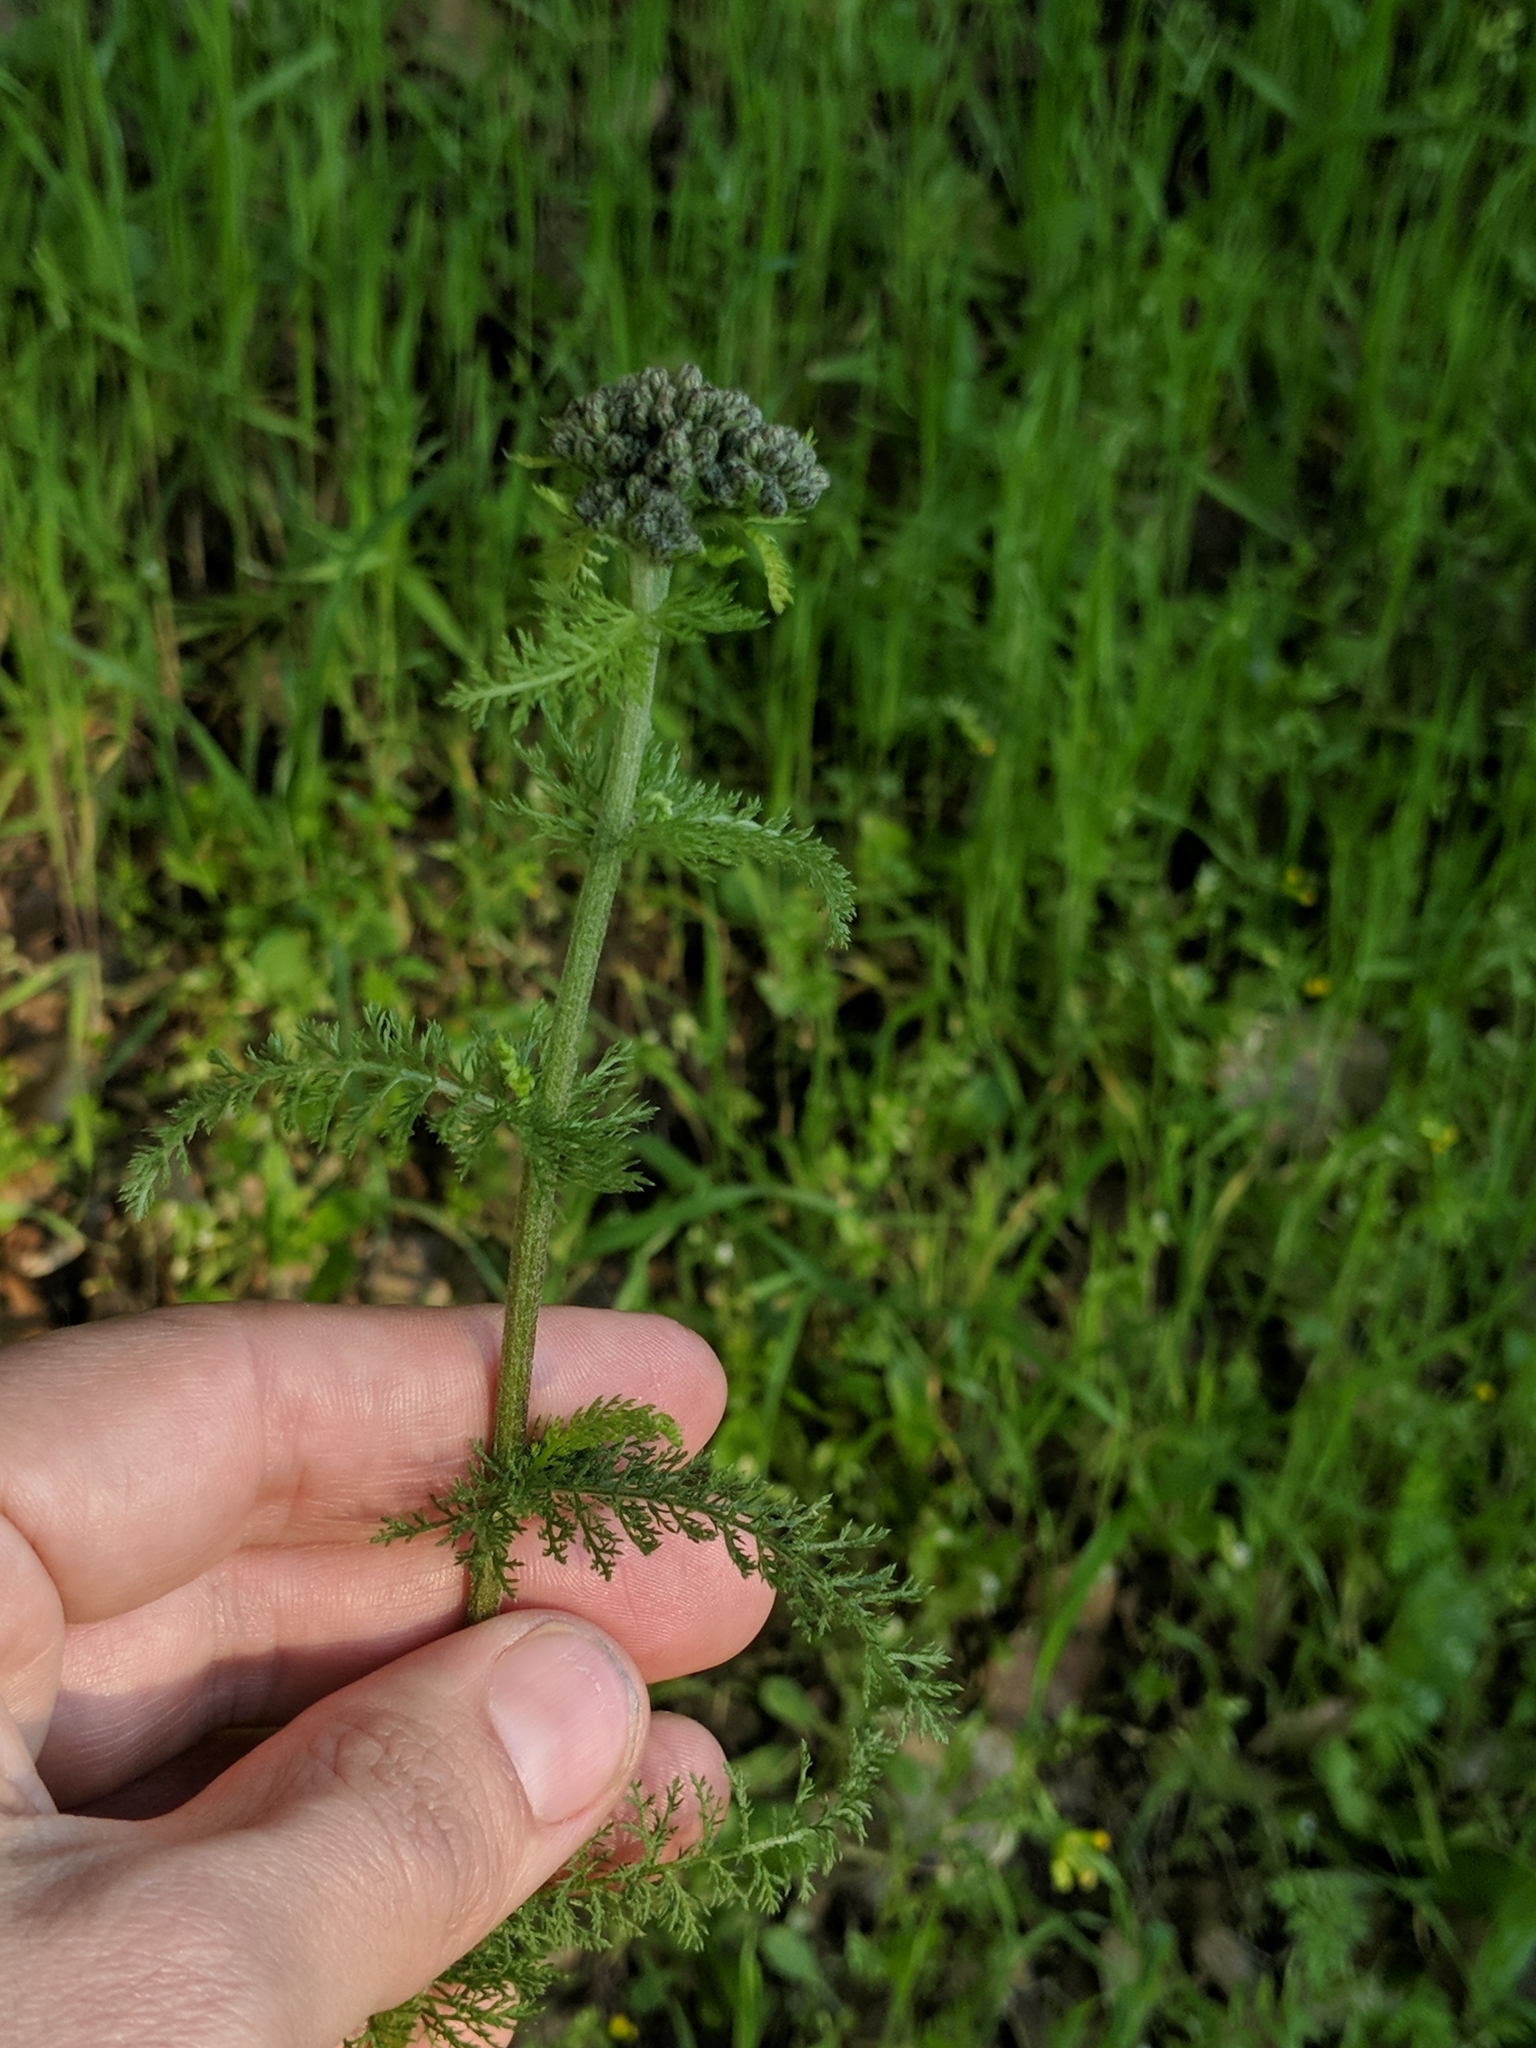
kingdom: Plantae
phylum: Tracheophyta
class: Magnoliopsida
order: Asterales
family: Asteraceae
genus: Achillea
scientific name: Achillea millefolium
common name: Yarrow
